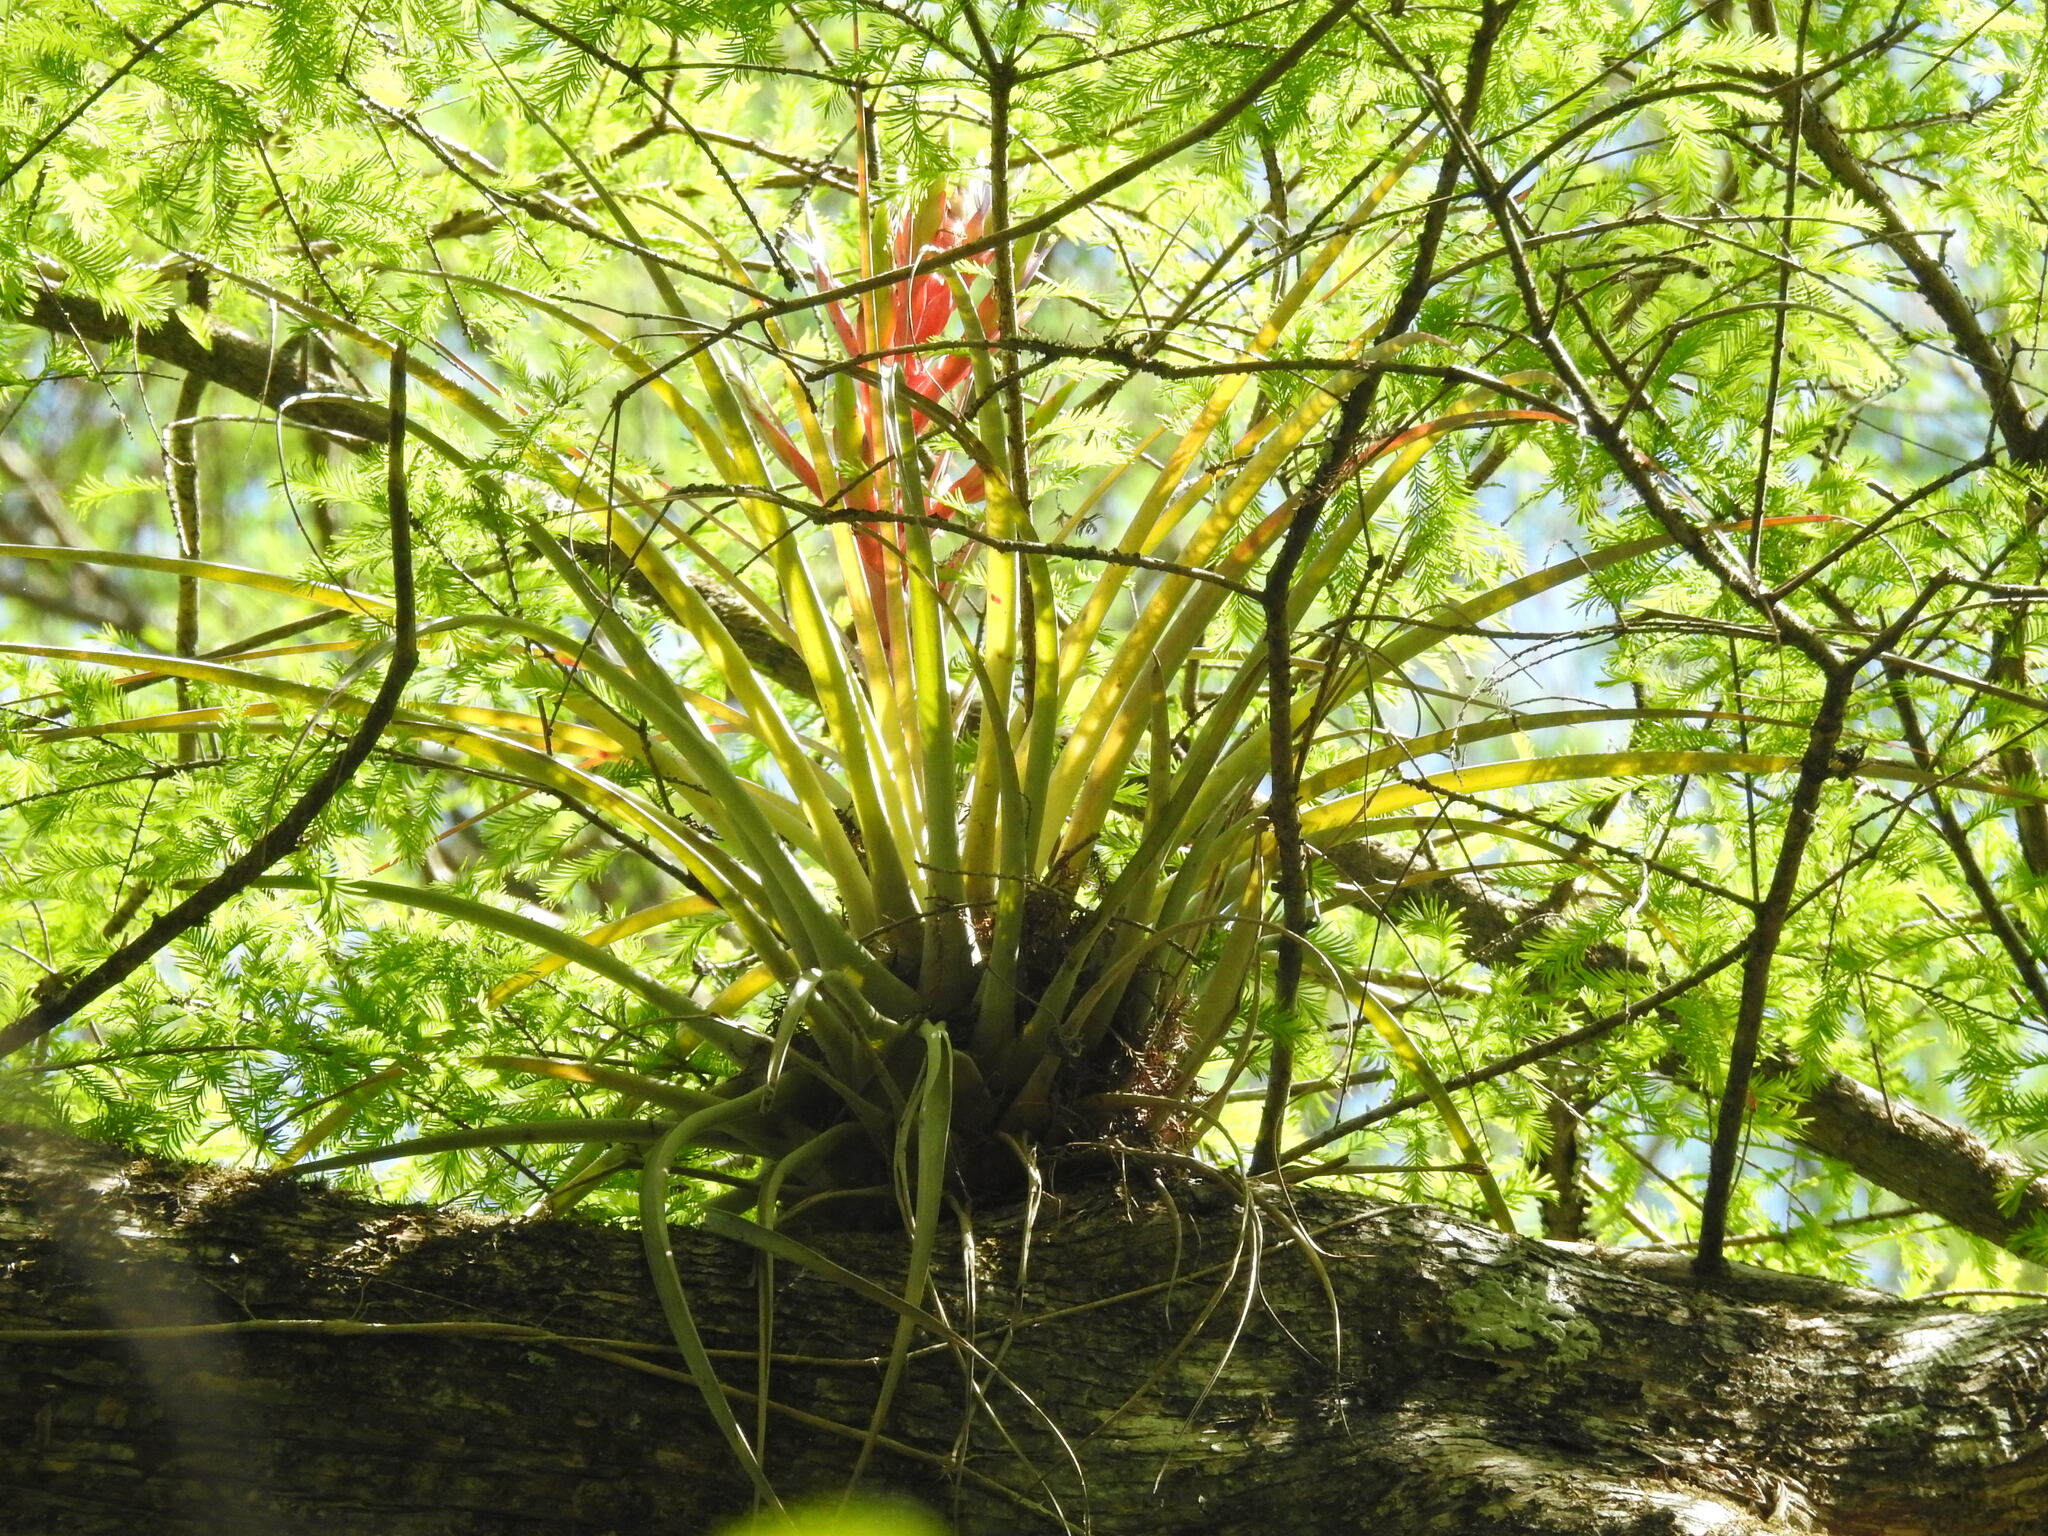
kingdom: Plantae
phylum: Tracheophyta
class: Liliopsida
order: Poales
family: Bromeliaceae
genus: Tillandsia
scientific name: Tillandsia fasciculata
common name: Giant airplant
